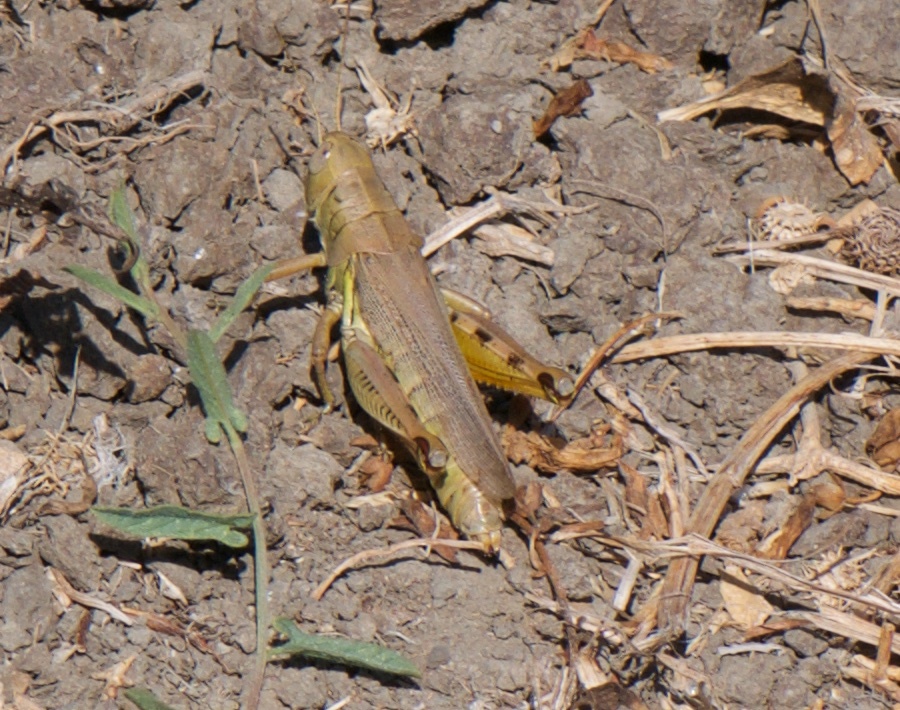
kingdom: Animalia
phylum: Arthropoda
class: Insecta
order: Orthoptera
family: Acrididae
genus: Melanoplus
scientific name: Melanoplus differentialis
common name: Differential grasshopper
